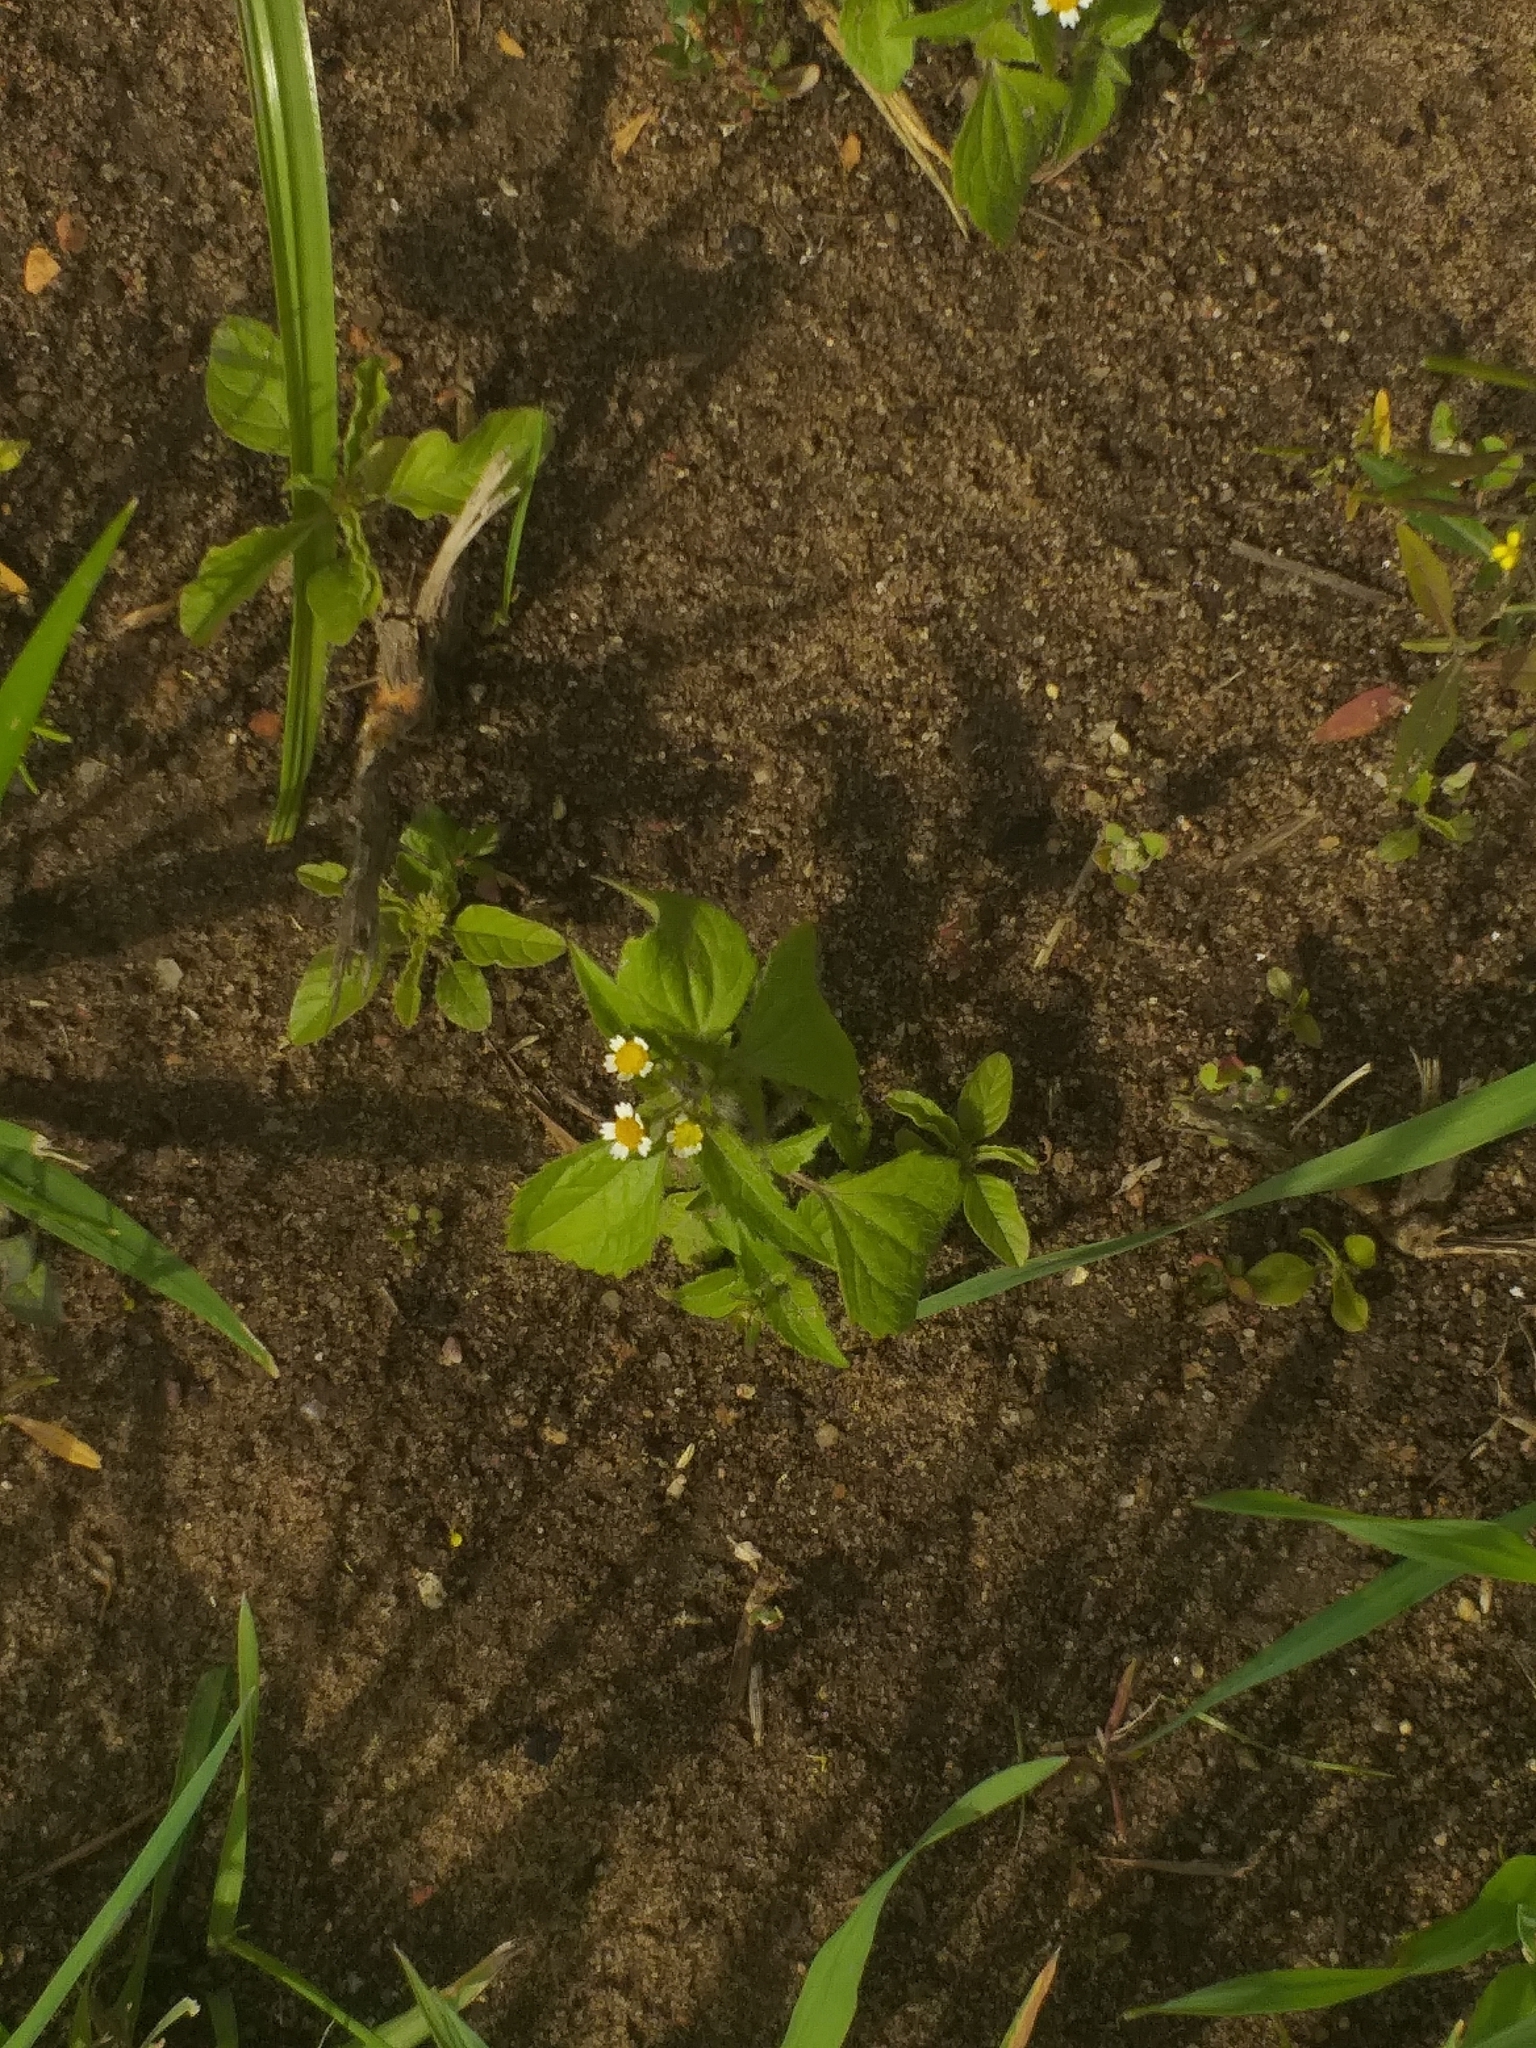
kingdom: Plantae
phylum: Tracheophyta
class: Magnoliopsida
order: Asterales
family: Asteraceae
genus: Galinsoga
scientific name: Galinsoga quadriradiata
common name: Shaggy soldier
